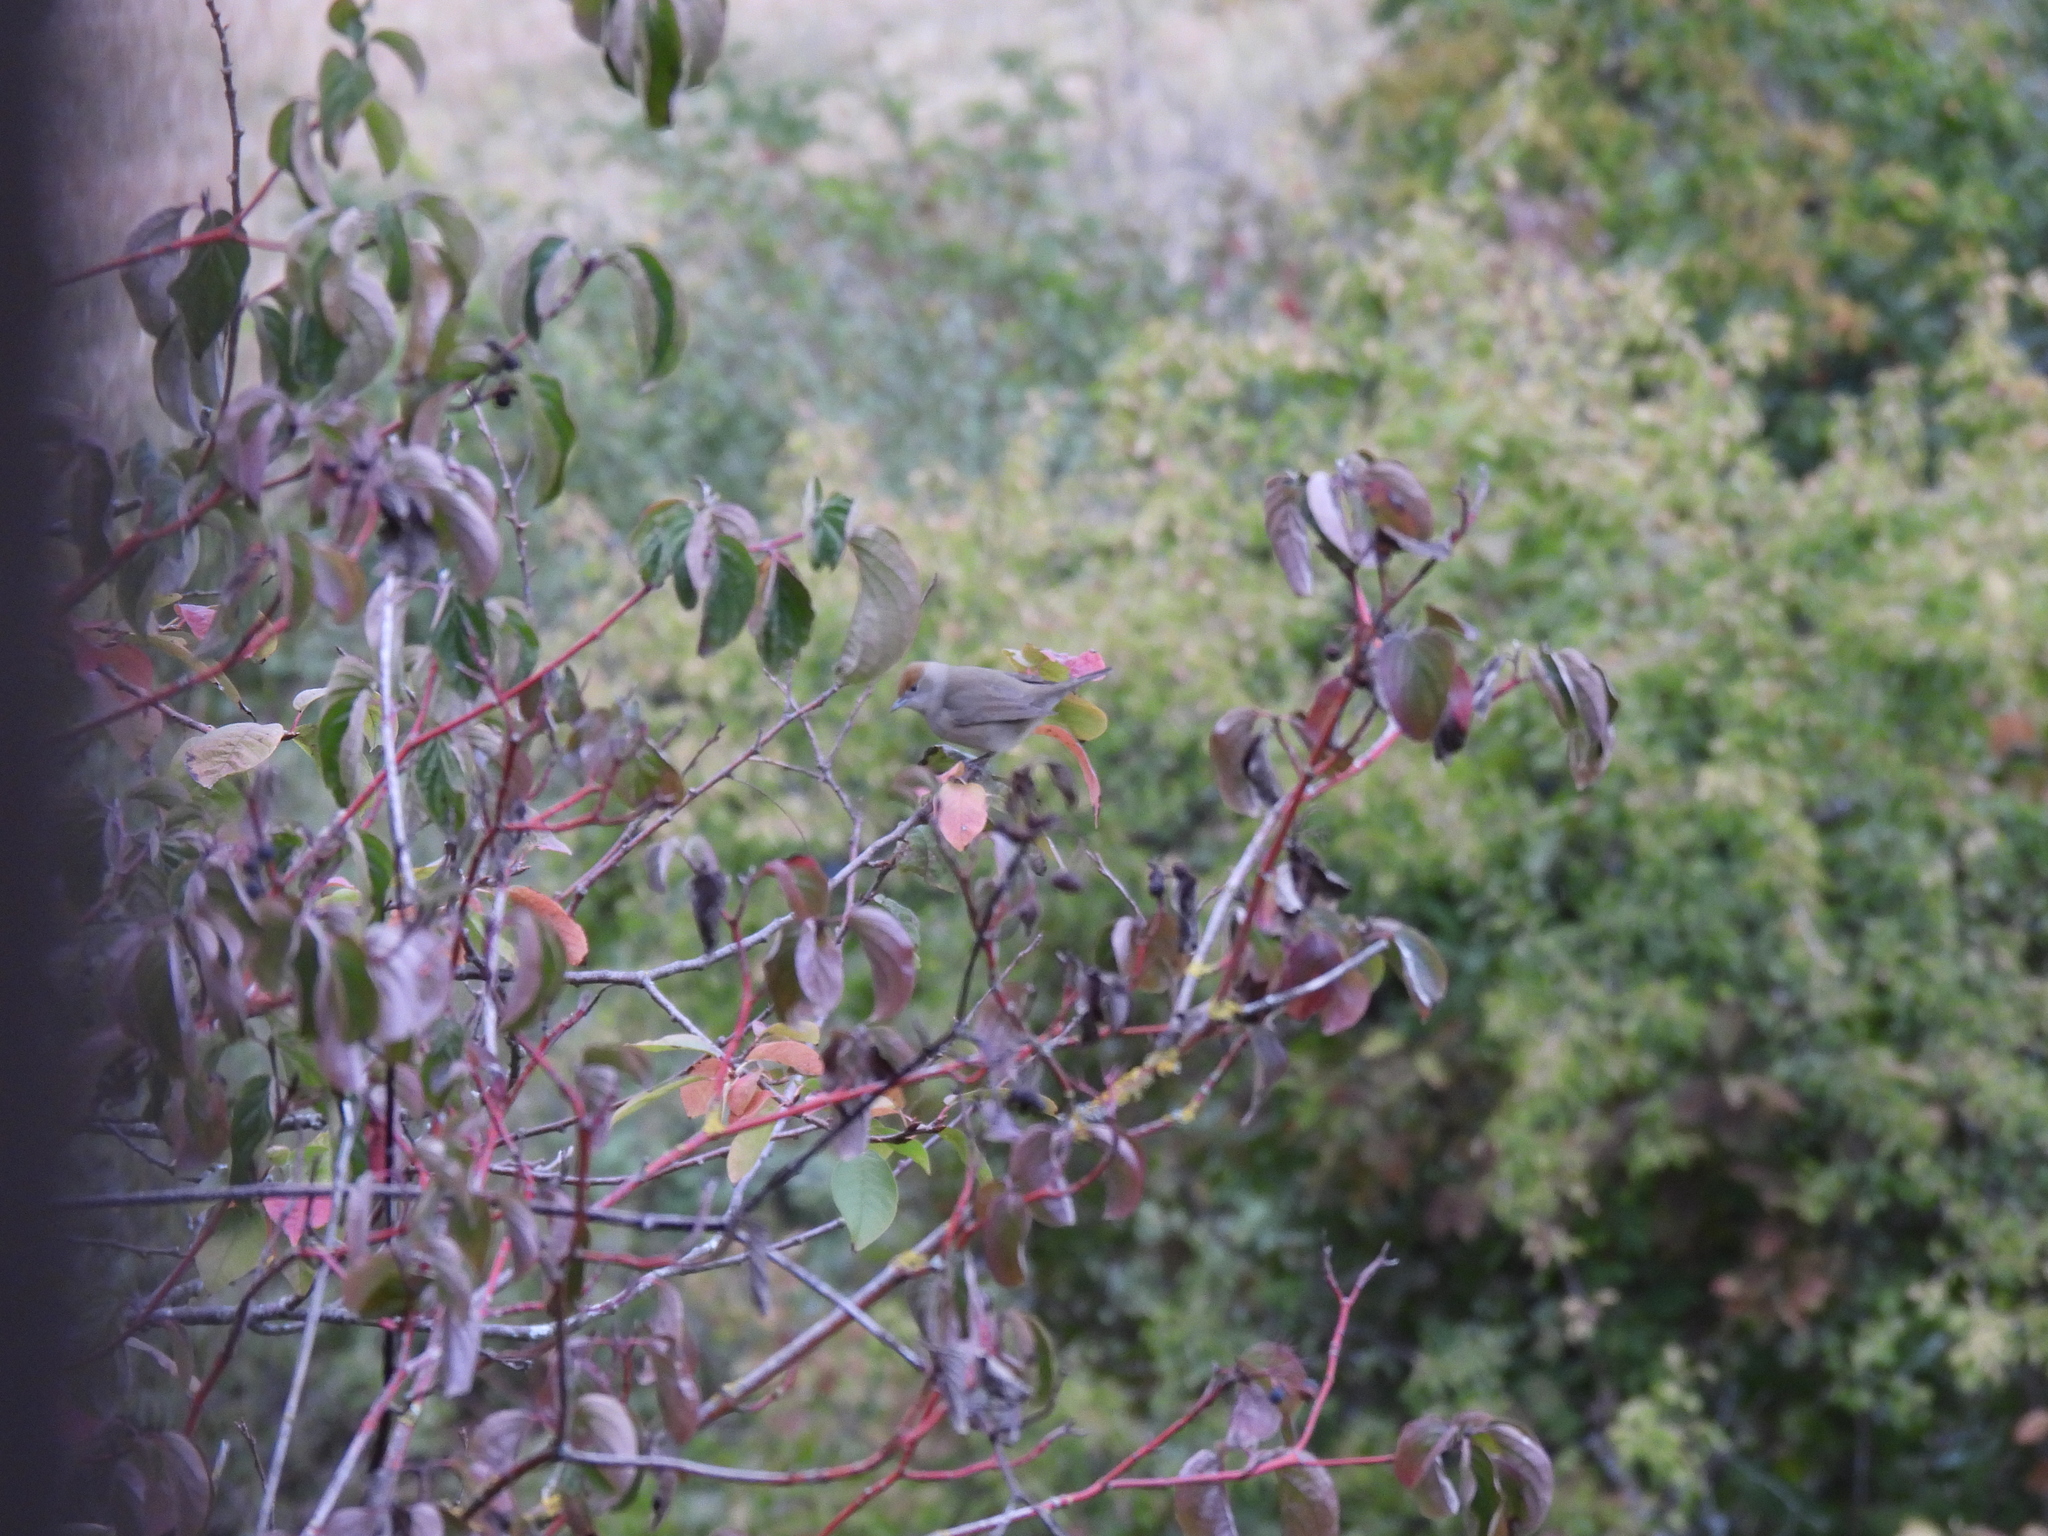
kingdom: Animalia
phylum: Chordata
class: Aves
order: Passeriformes
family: Sylviidae
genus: Sylvia
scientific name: Sylvia atricapilla
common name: Eurasian blackcap
